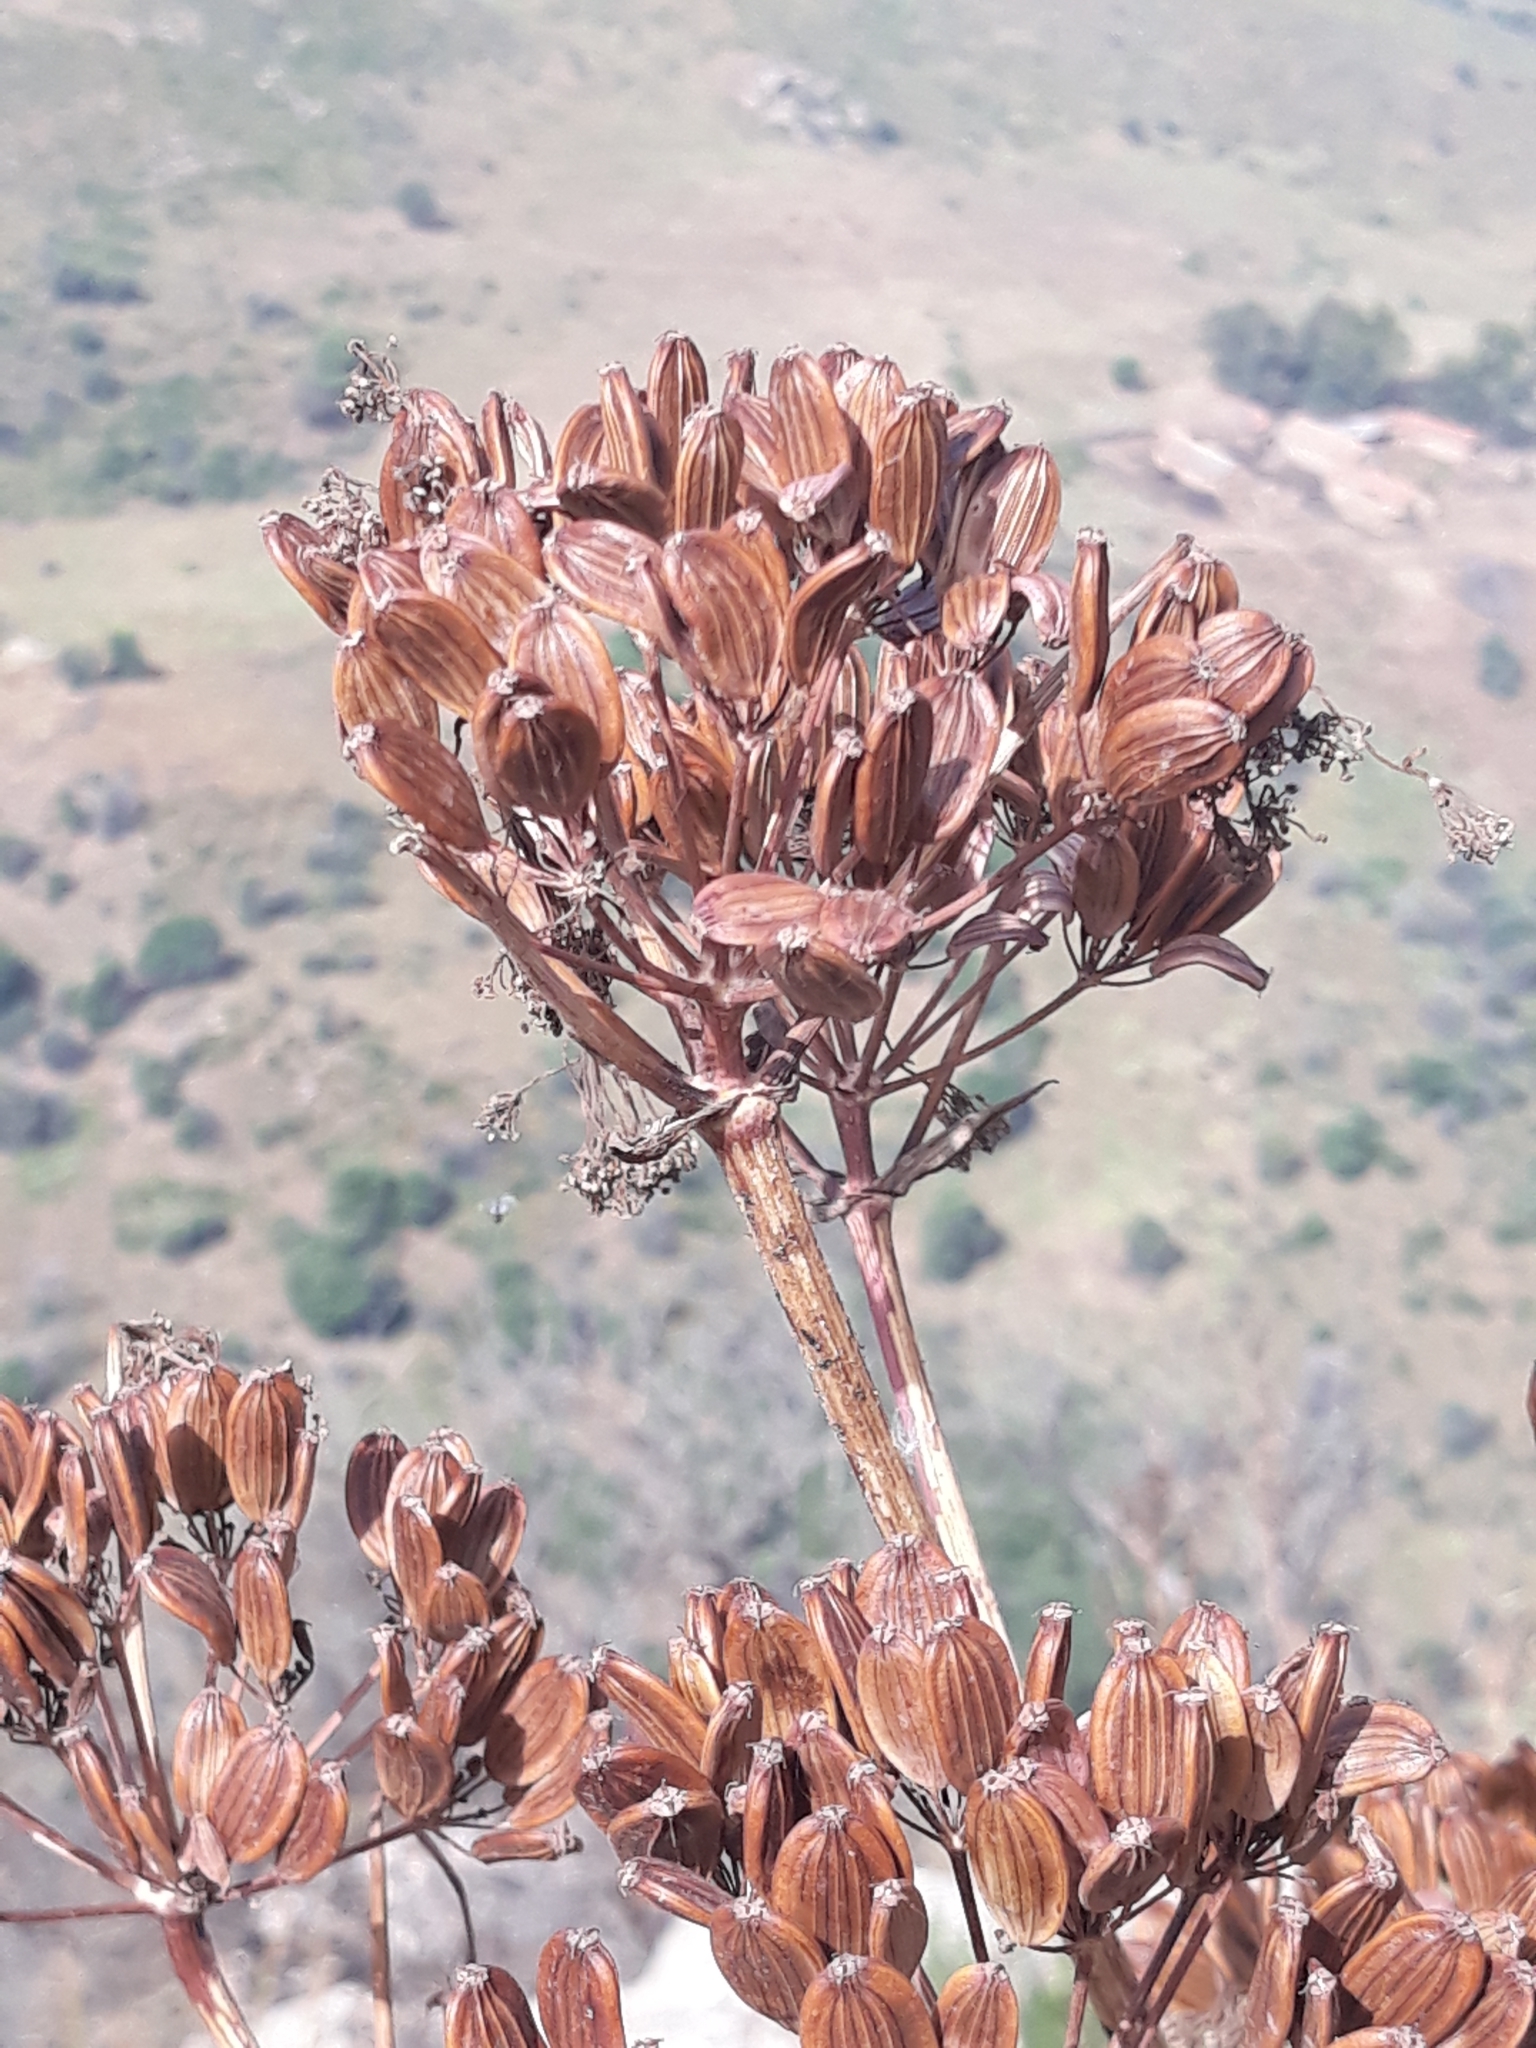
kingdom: Plantae
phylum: Tracheophyta
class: Magnoliopsida
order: Apiales
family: Apiaceae
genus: Ferula
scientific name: Ferula communis
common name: Giant fennel
